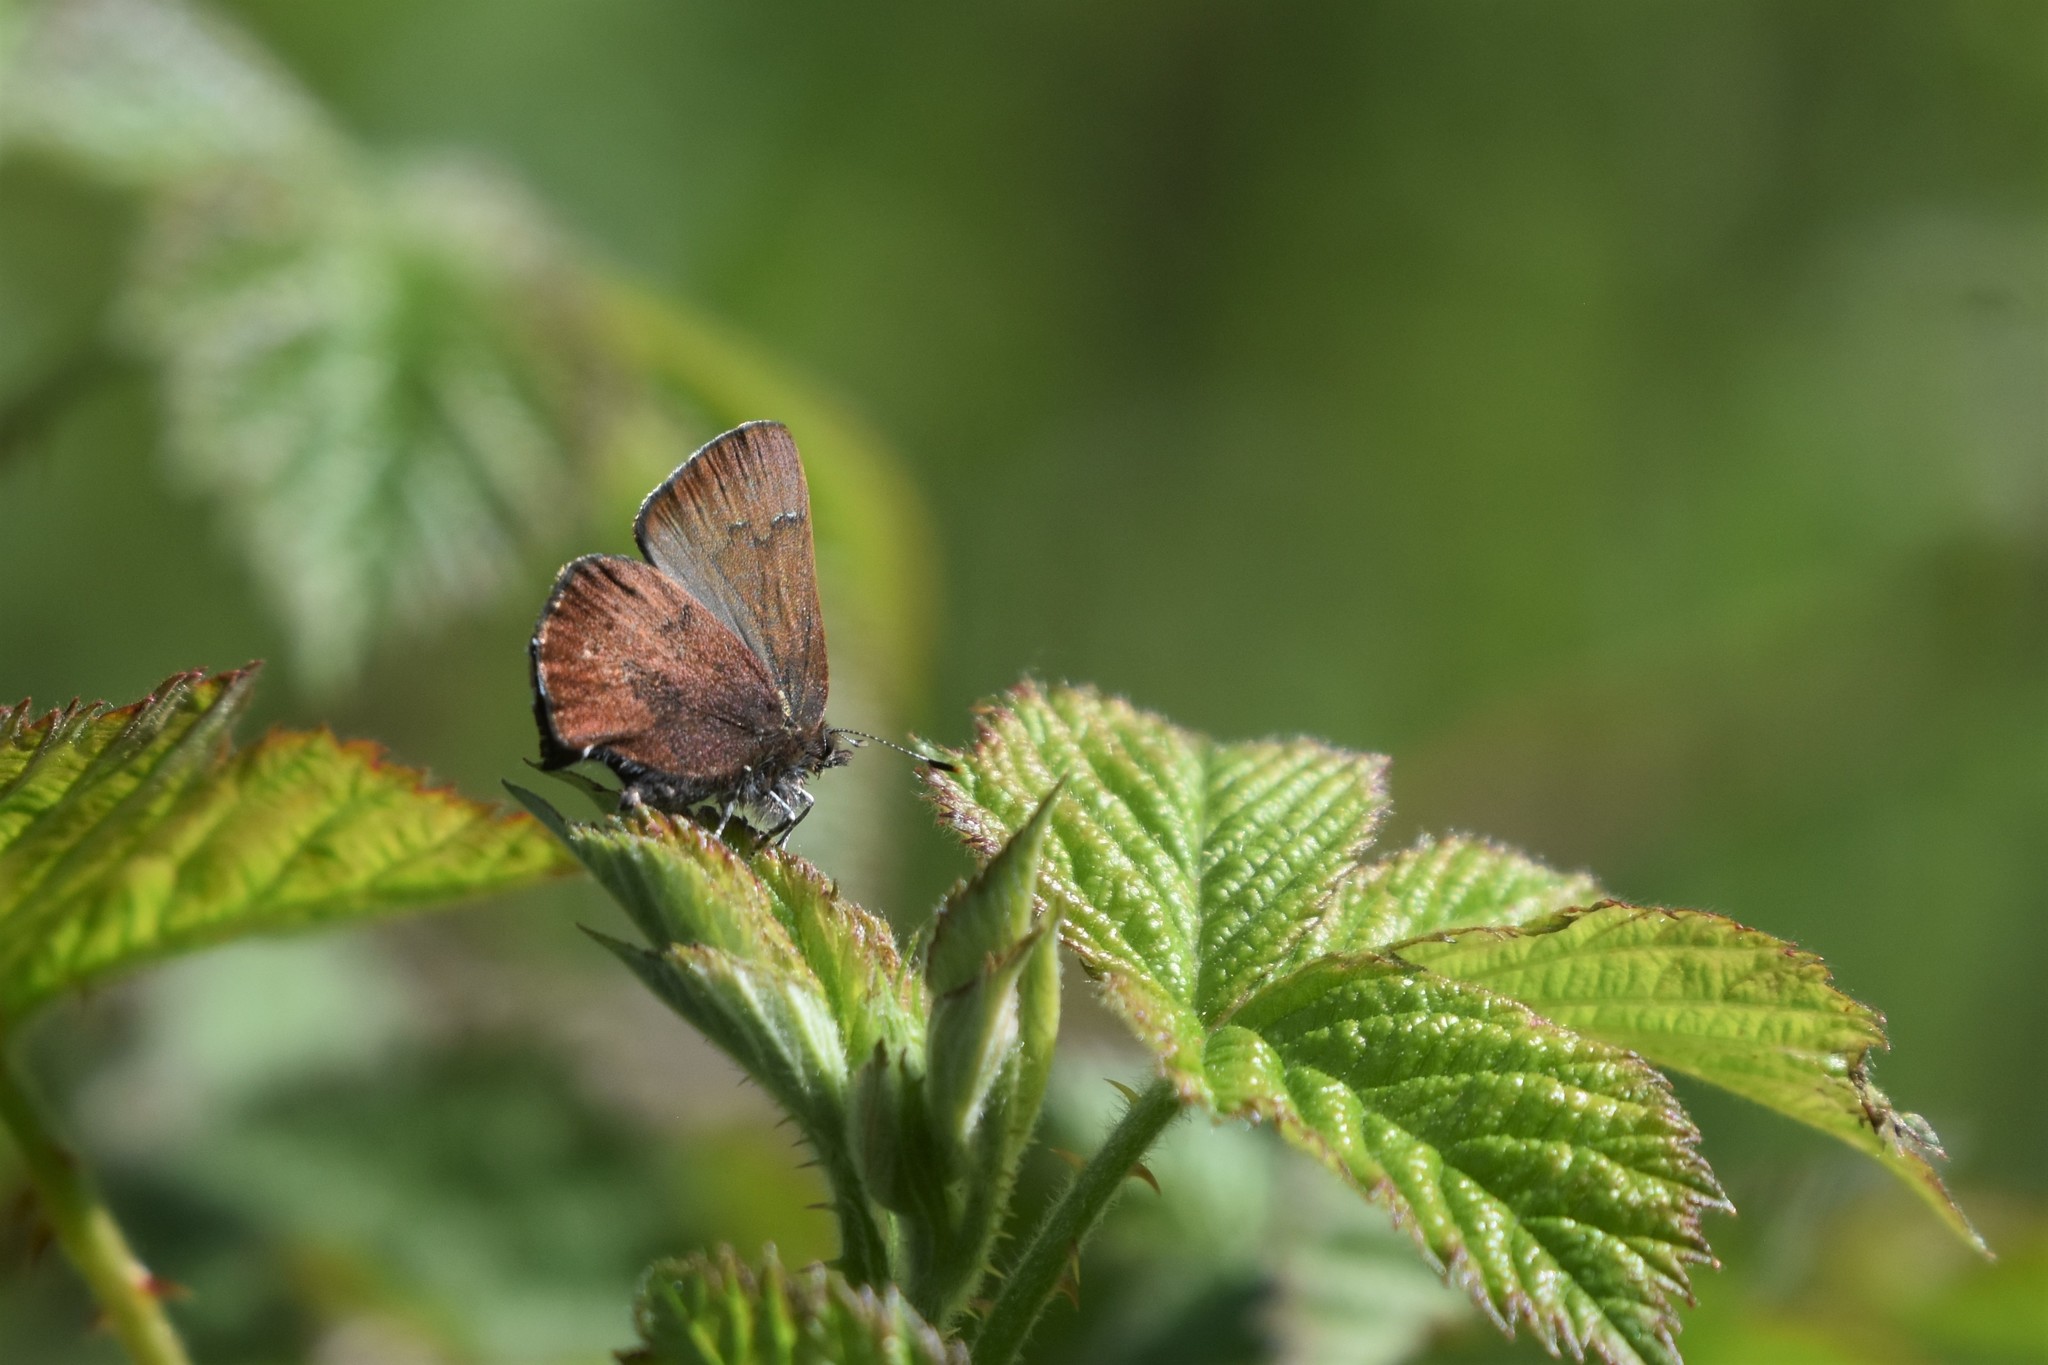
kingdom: Animalia
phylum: Arthropoda
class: Insecta
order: Lepidoptera
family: Lycaenidae
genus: Incisalia
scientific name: Incisalia irioides
